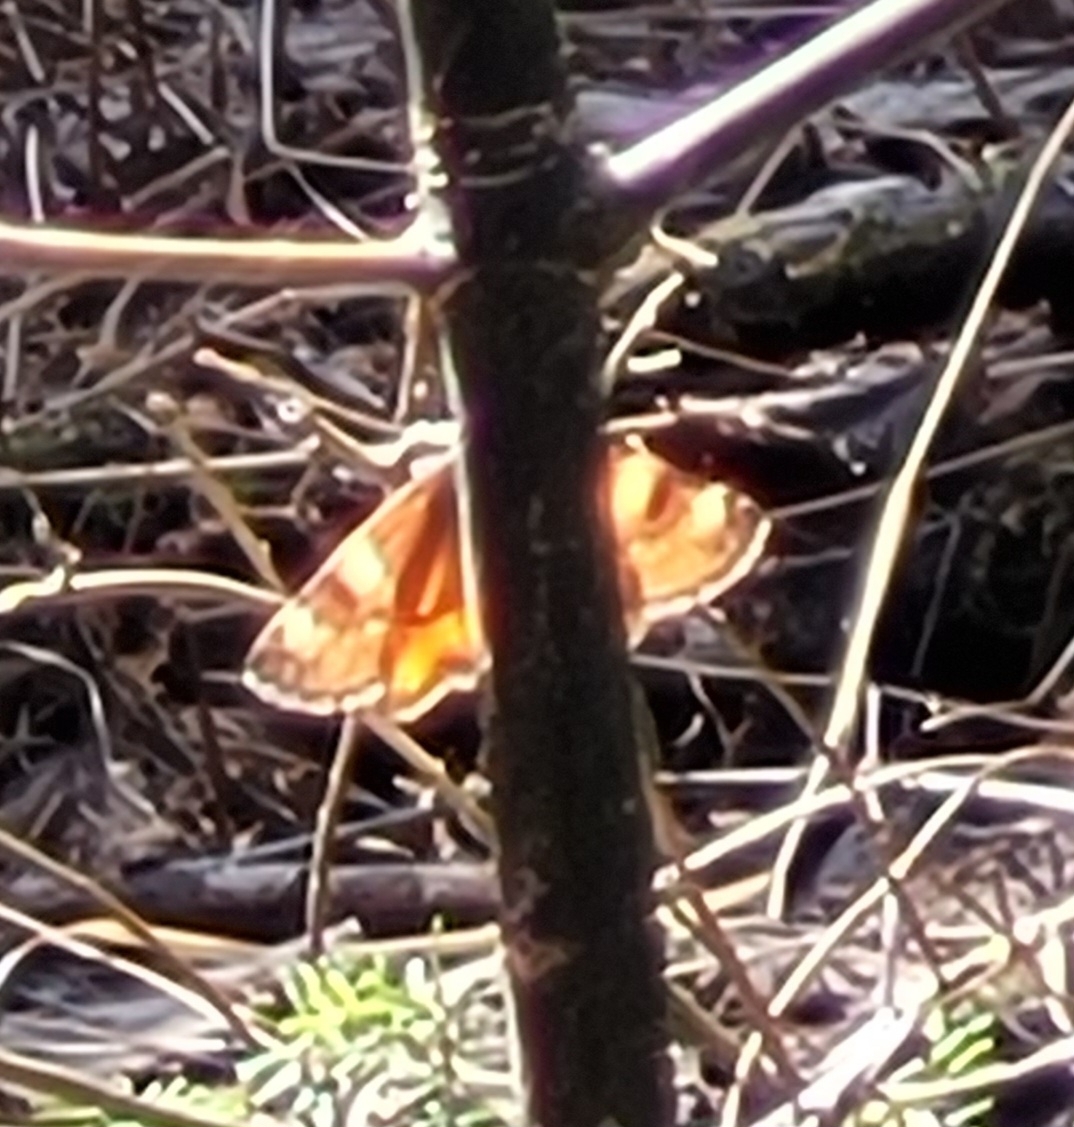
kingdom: Animalia
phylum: Arthropoda
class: Insecta
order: Lepidoptera
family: Geometridae
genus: Archiearis
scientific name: Archiearis infans
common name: First born geometer
